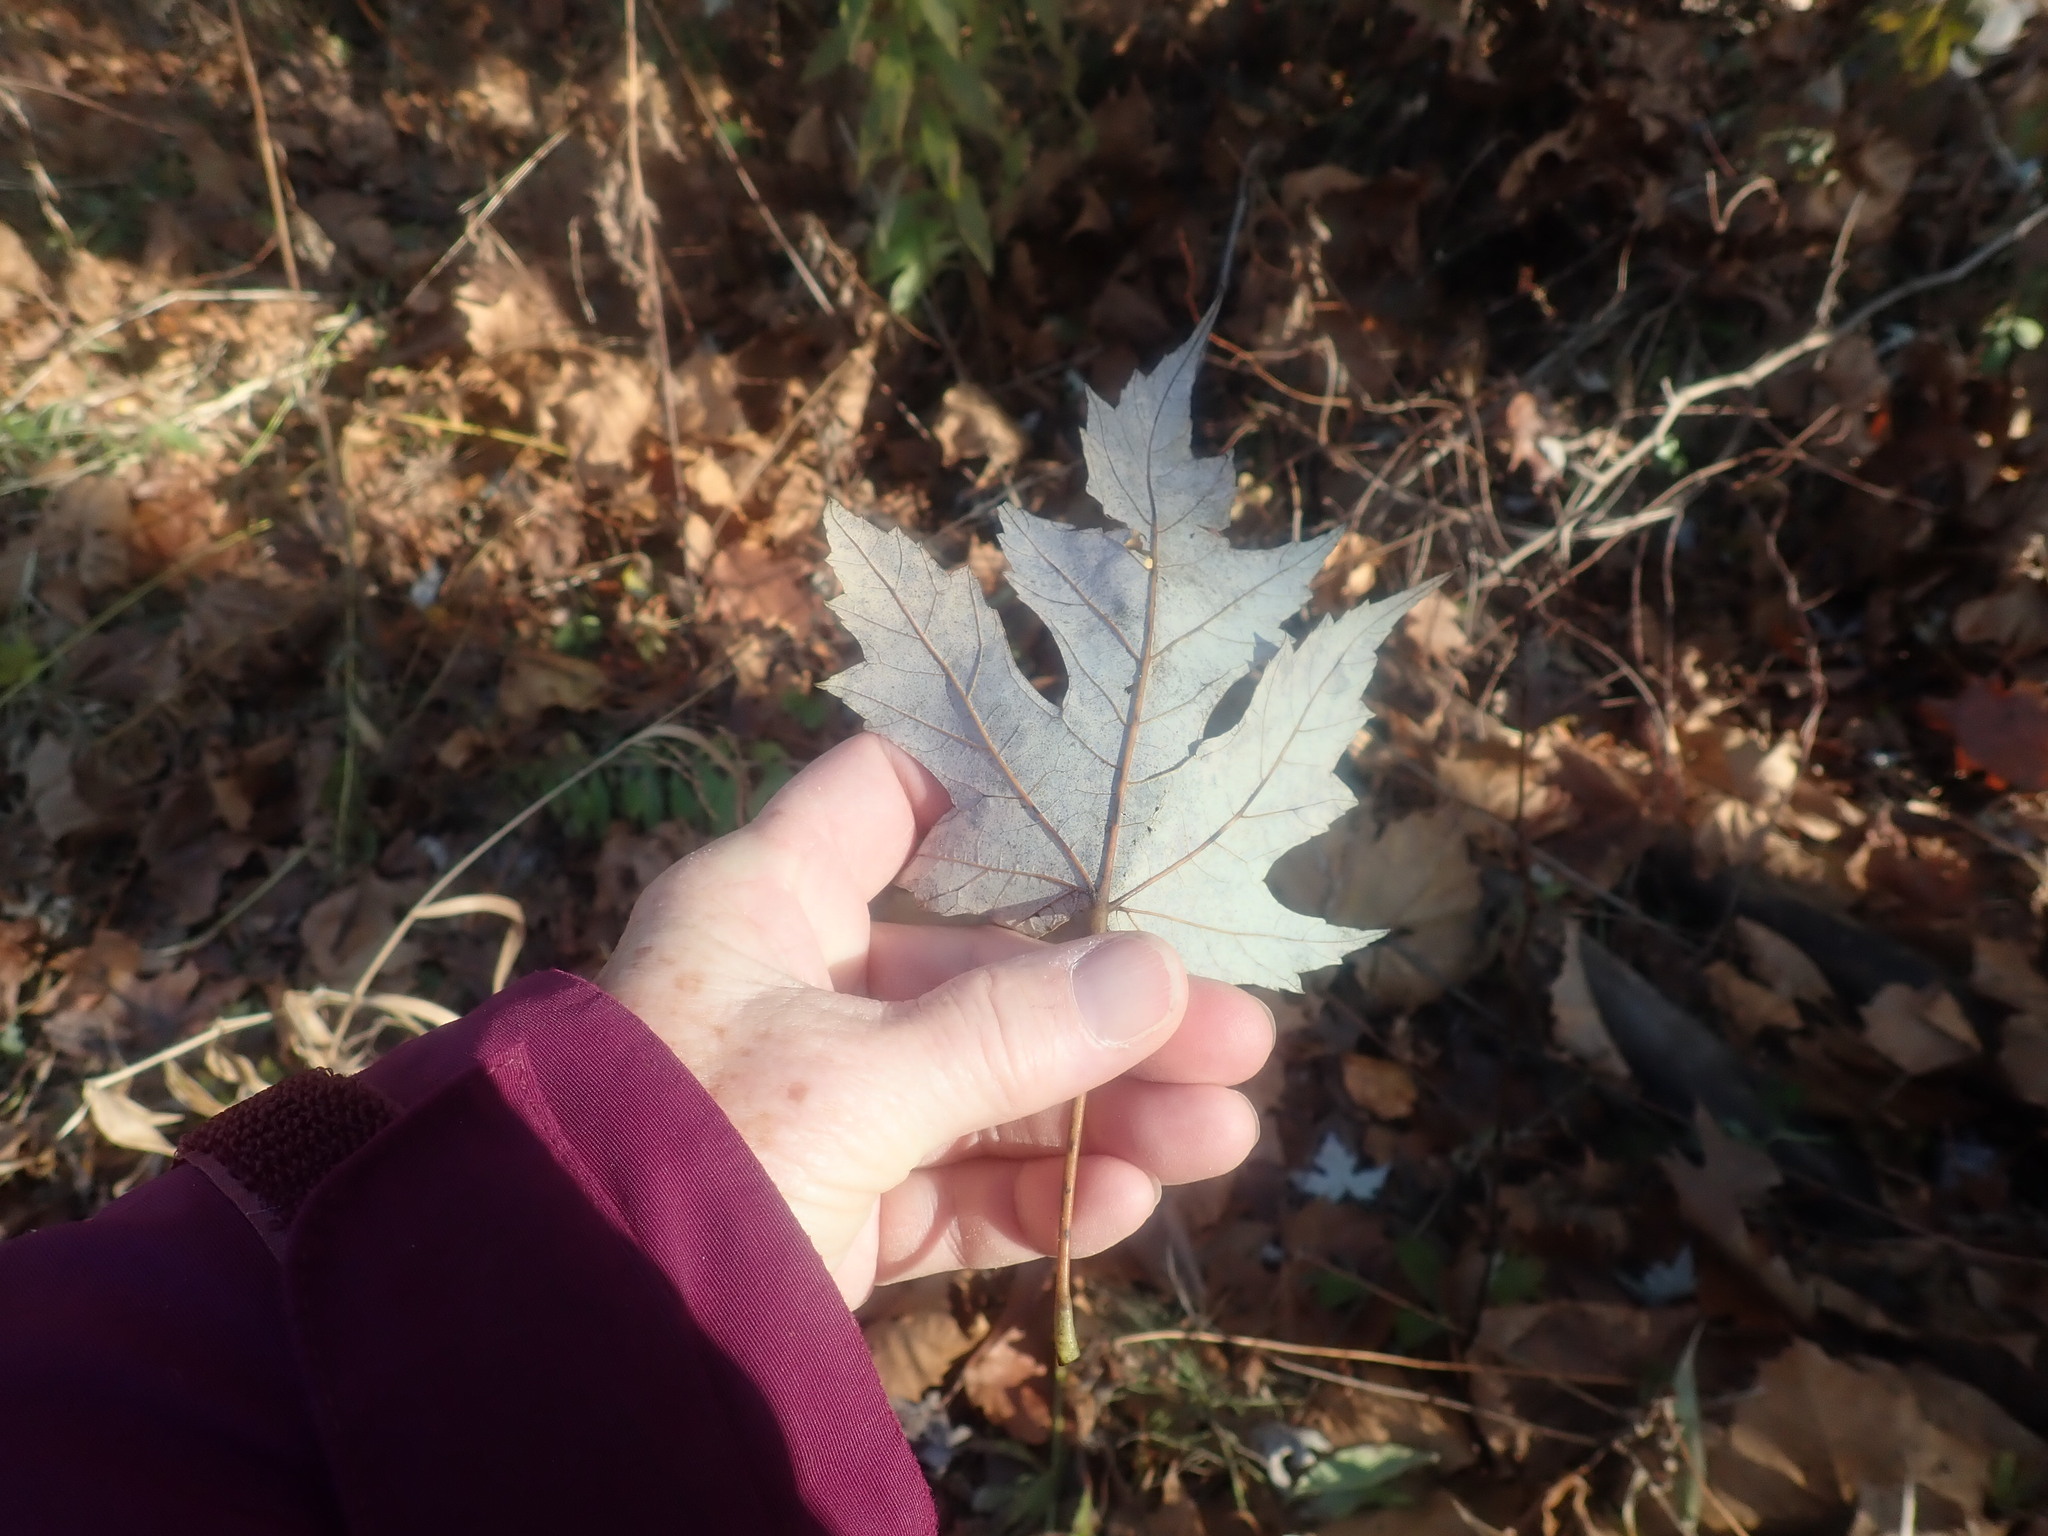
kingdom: Plantae
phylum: Tracheophyta
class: Magnoliopsida
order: Sapindales
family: Sapindaceae
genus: Acer
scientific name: Acer saccharinum
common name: Silver maple
